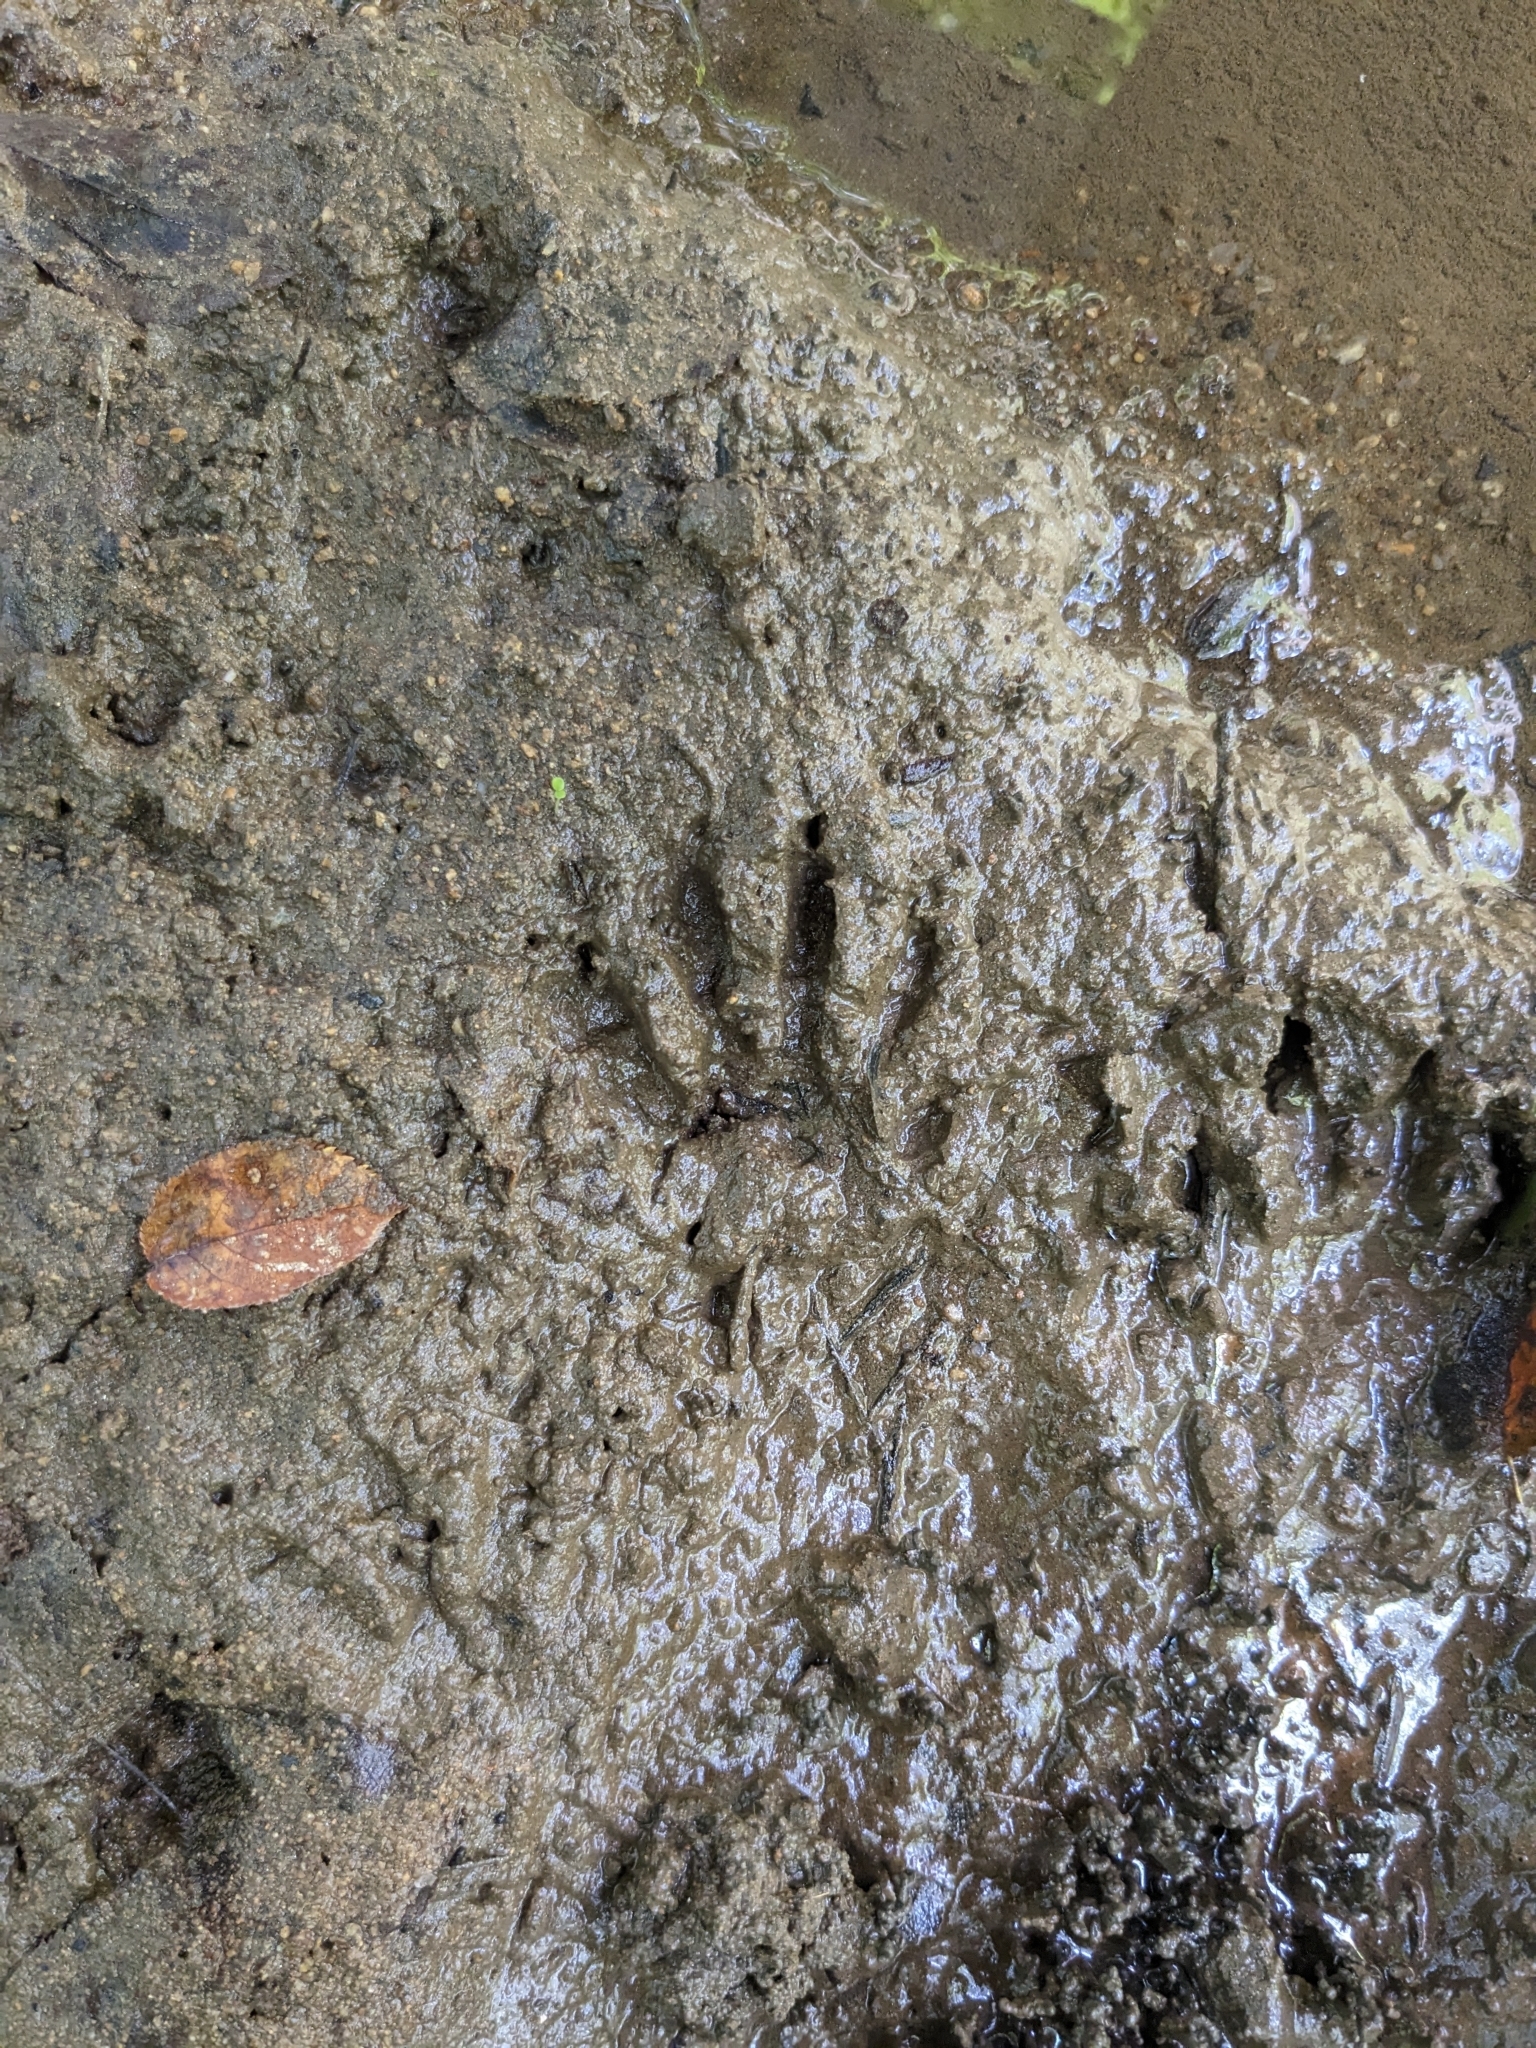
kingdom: Animalia
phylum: Chordata
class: Mammalia
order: Carnivora
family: Procyonidae
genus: Procyon
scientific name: Procyon lotor
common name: Raccoon
